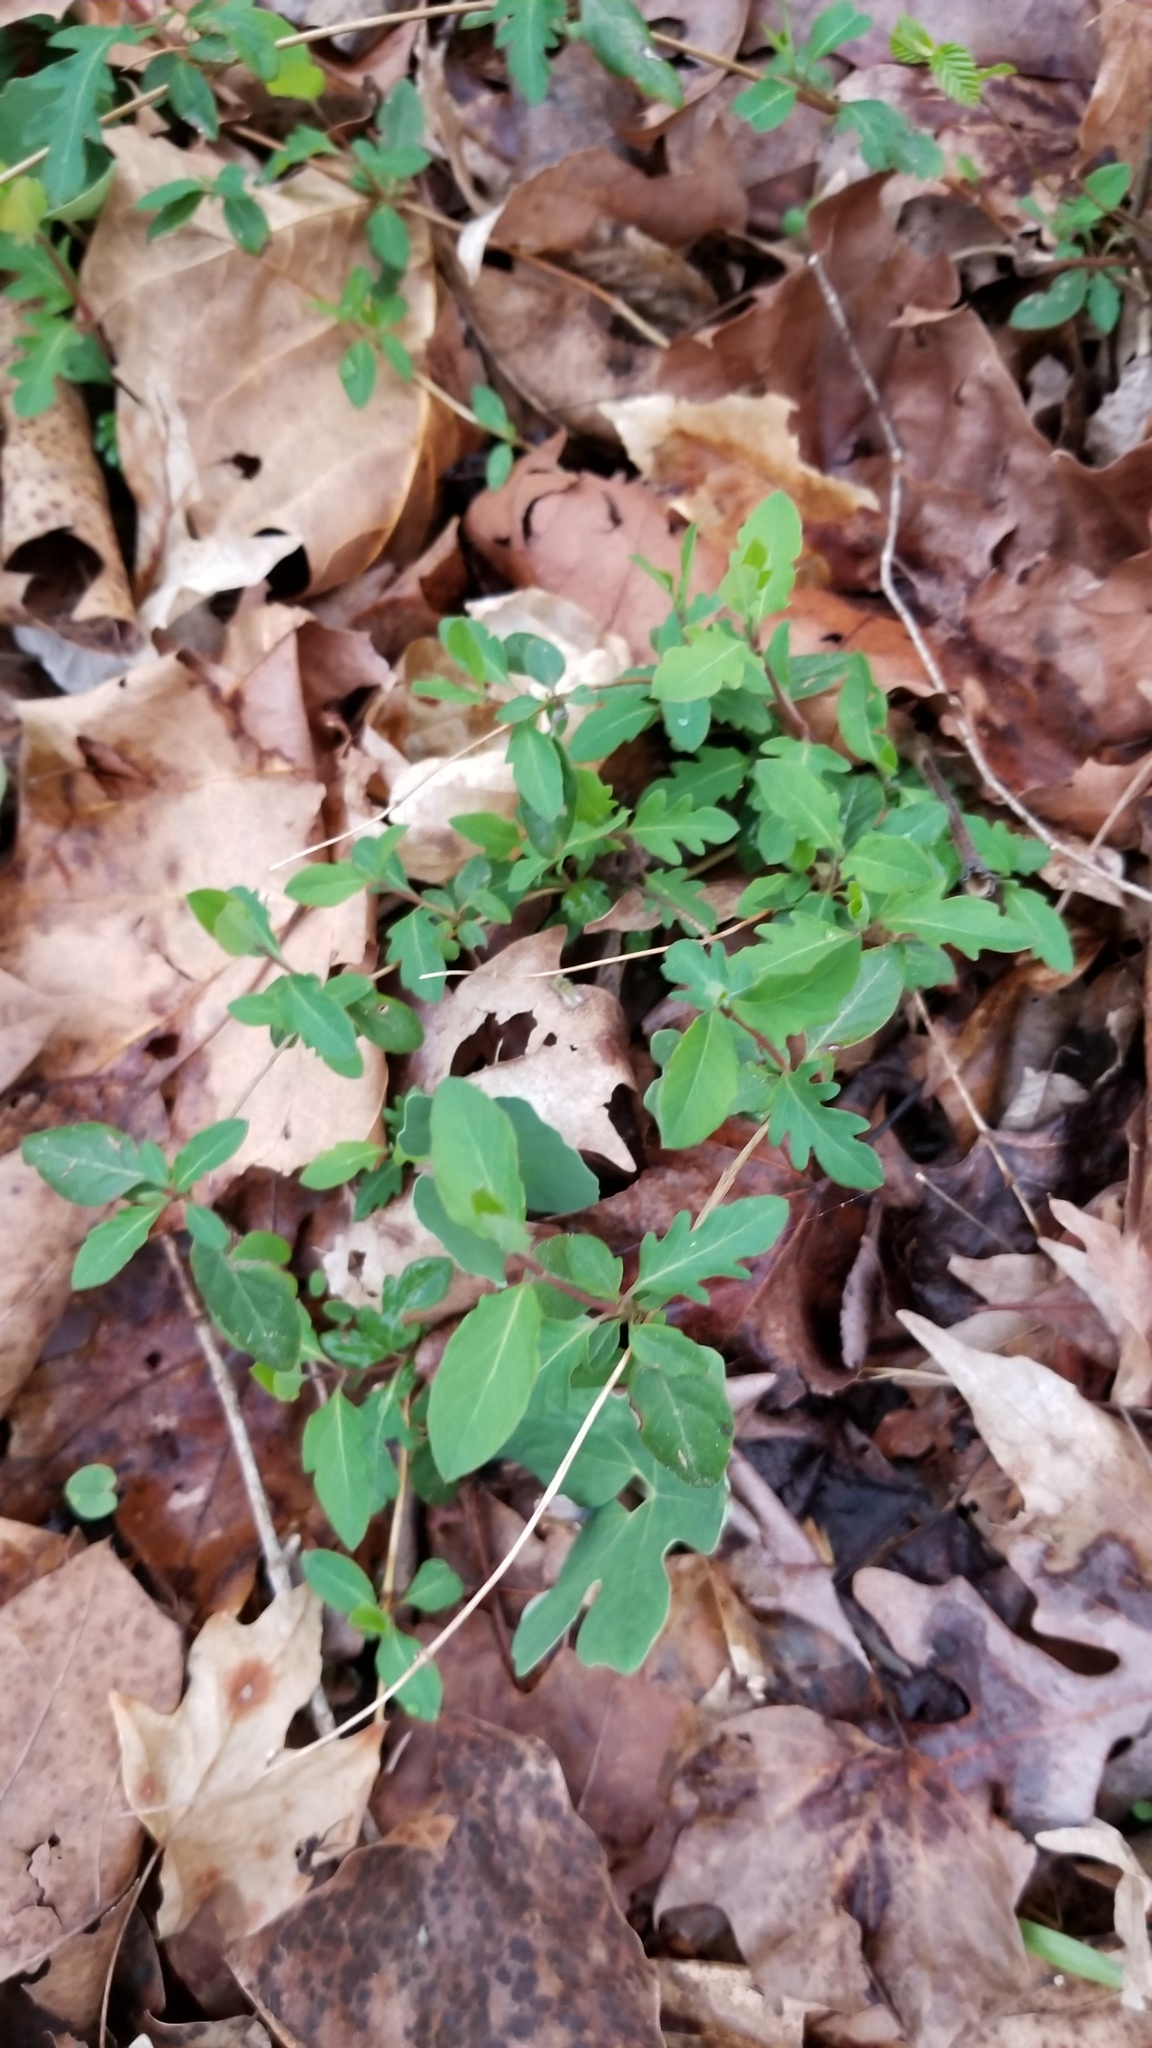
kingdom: Plantae
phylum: Tracheophyta
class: Magnoliopsida
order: Dipsacales
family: Caprifoliaceae
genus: Lonicera
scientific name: Lonicera japonica
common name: Japanese honeysuckle
